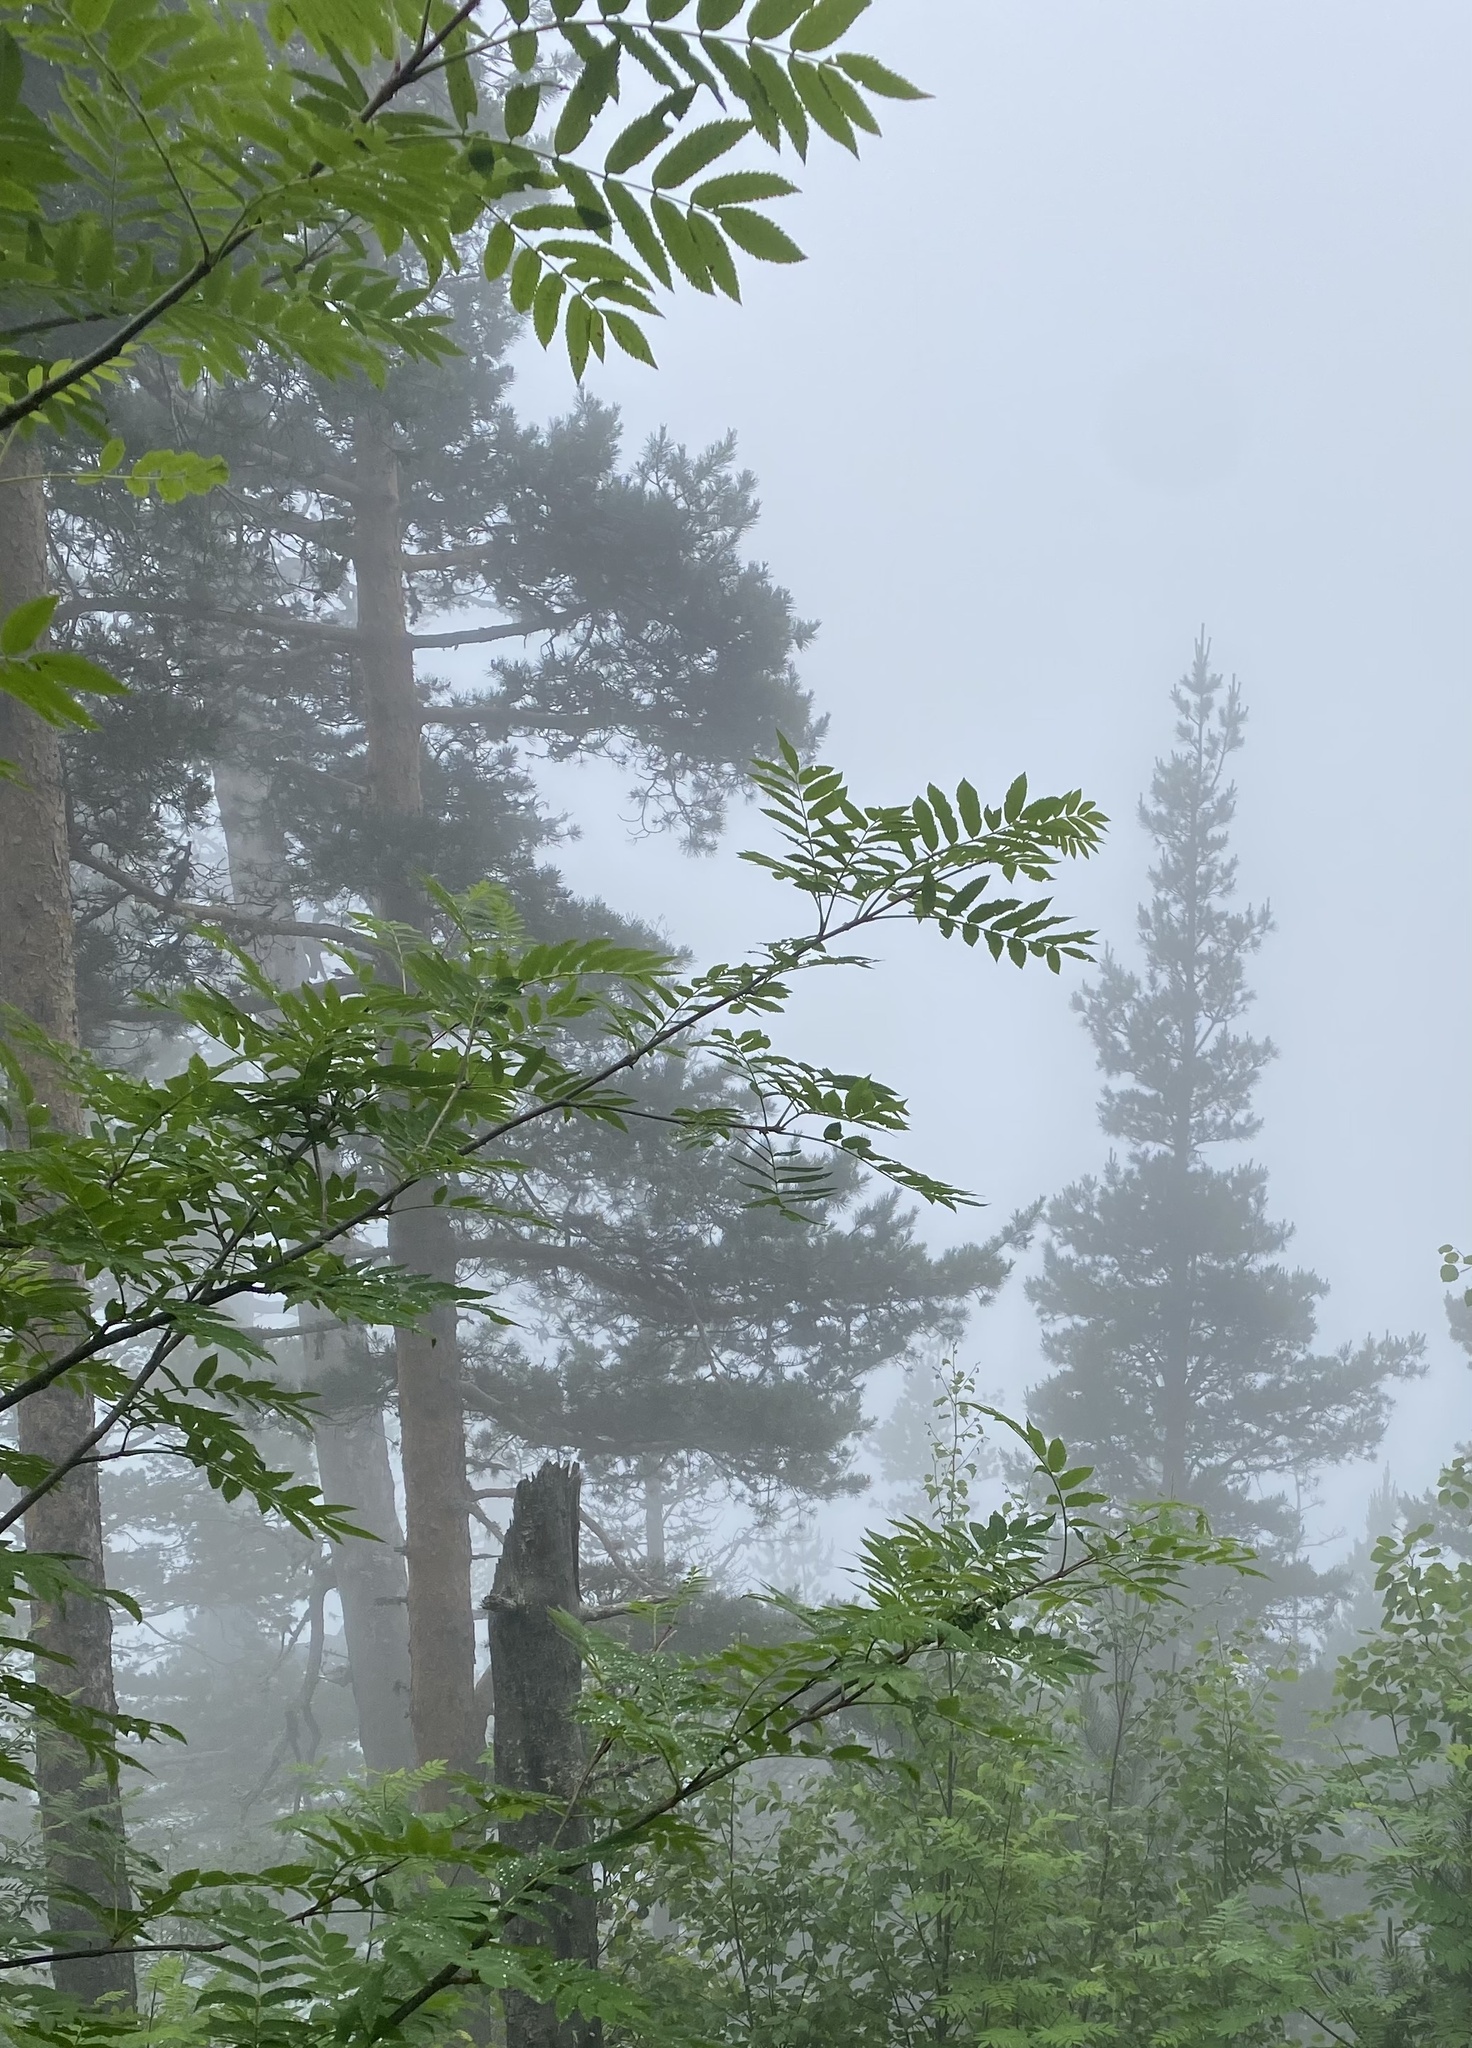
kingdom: Plantae
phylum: Tracheophyta
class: Magnoliopsida
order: Rosales
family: Rosaceae
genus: Sorbus
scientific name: Sorbus aucuparia
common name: Rowan
